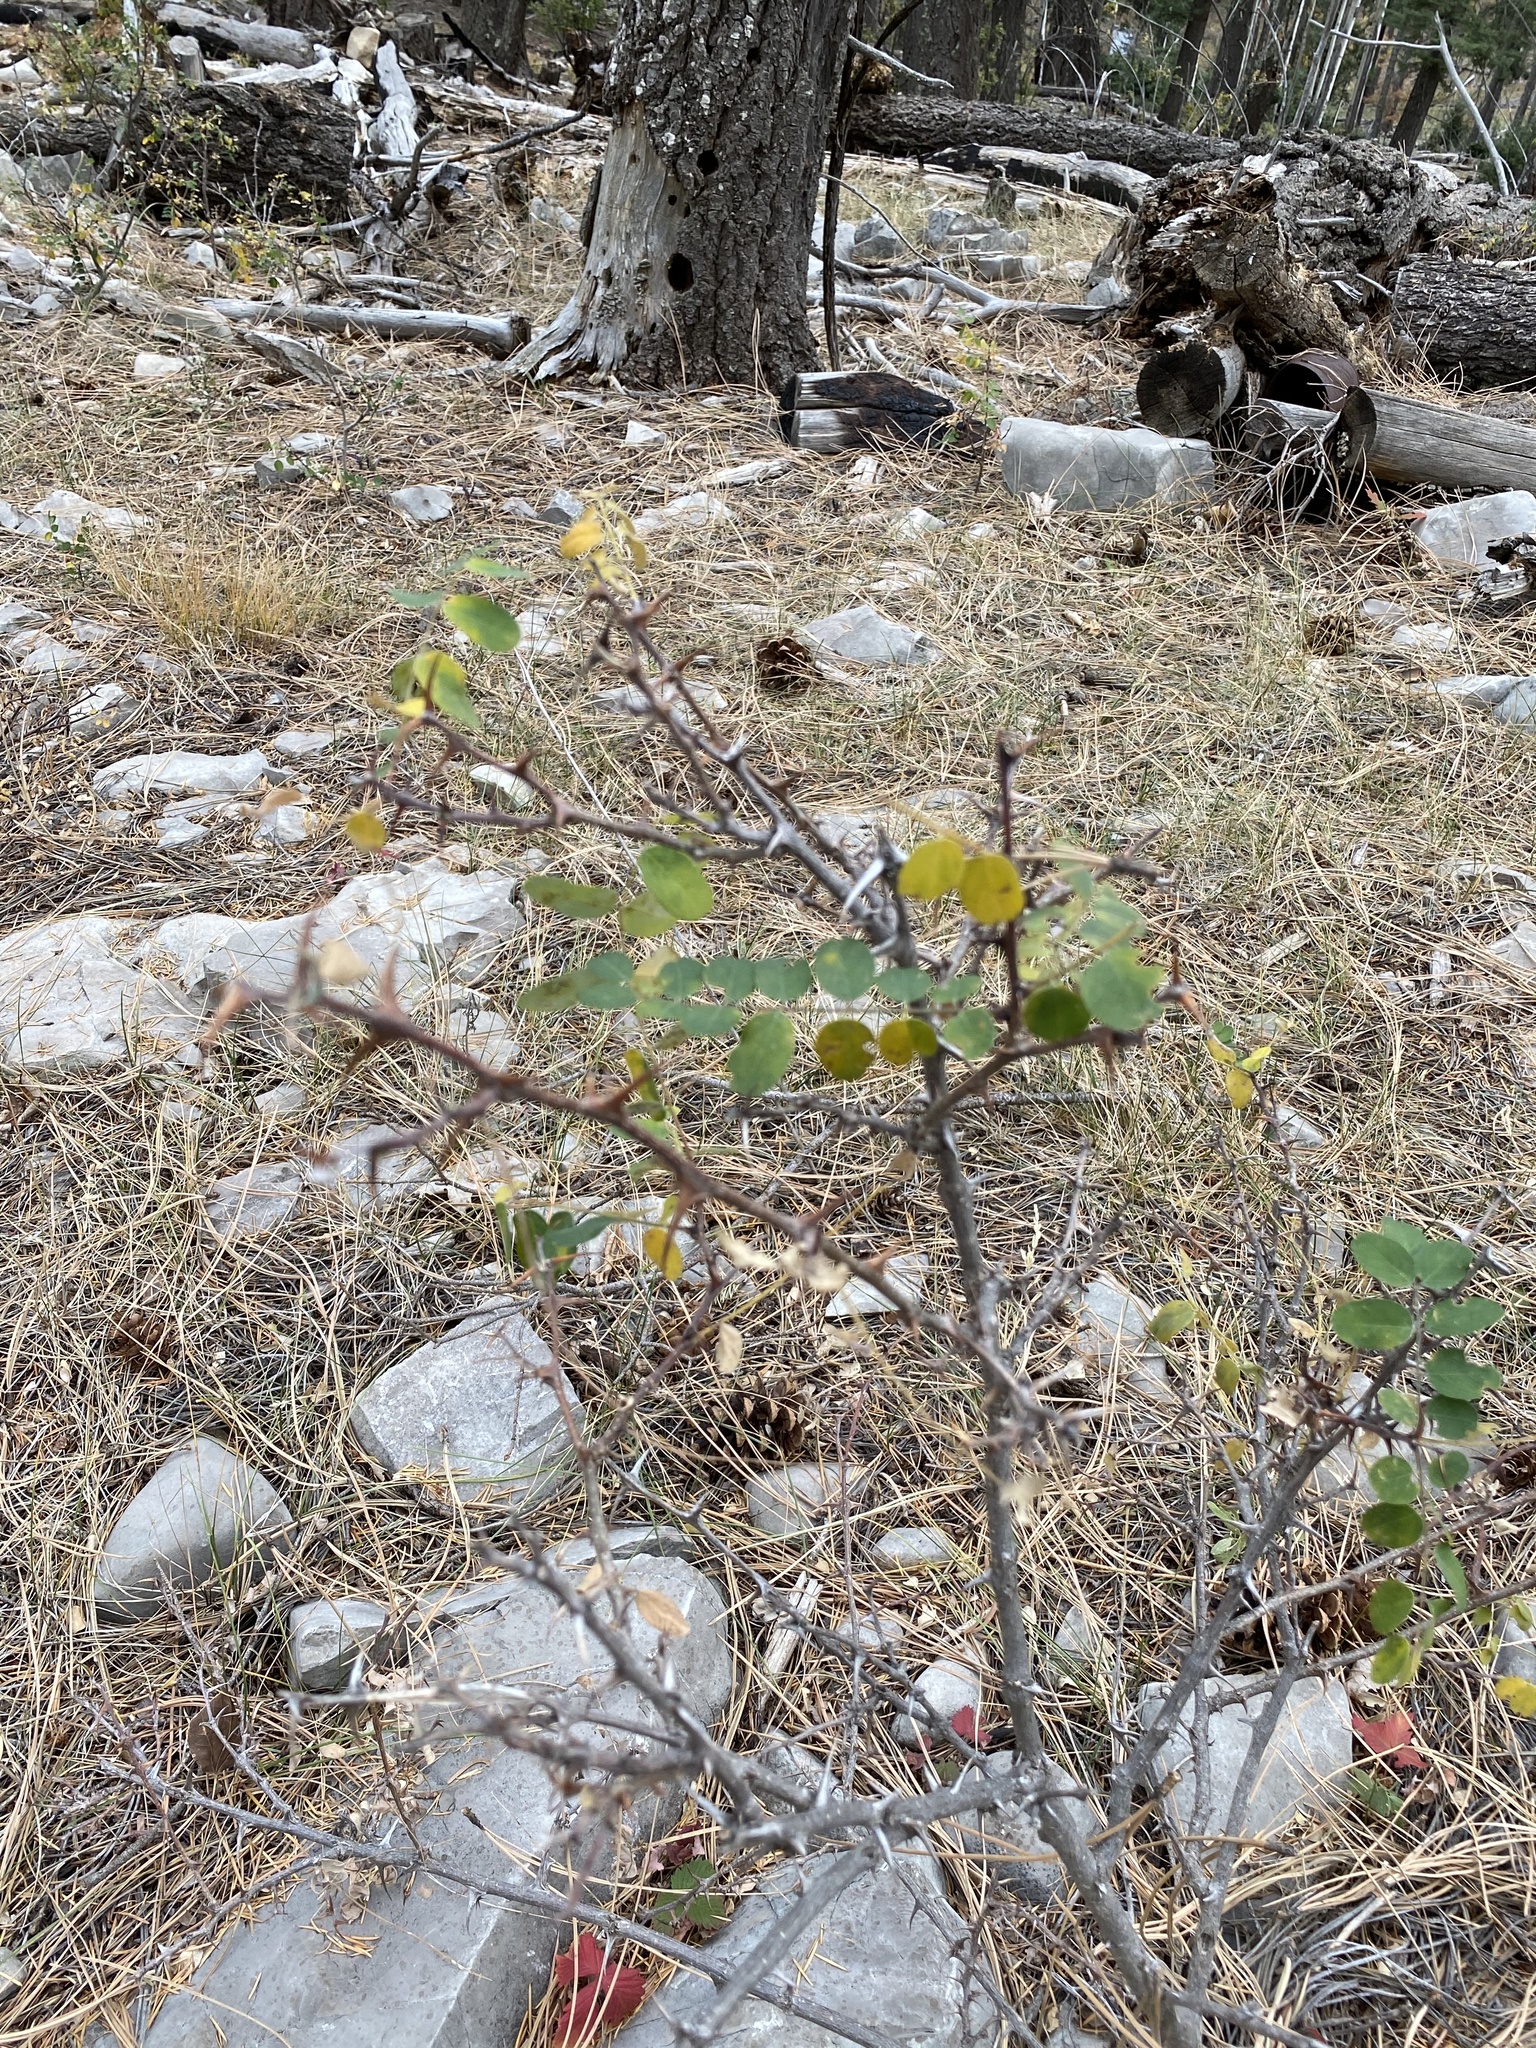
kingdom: Plantae
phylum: Tracheophyta
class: Magnoliopsida
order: Fabales
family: Fabaceae
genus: Robinia
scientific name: Robinia neomexicana
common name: New mexico locust
